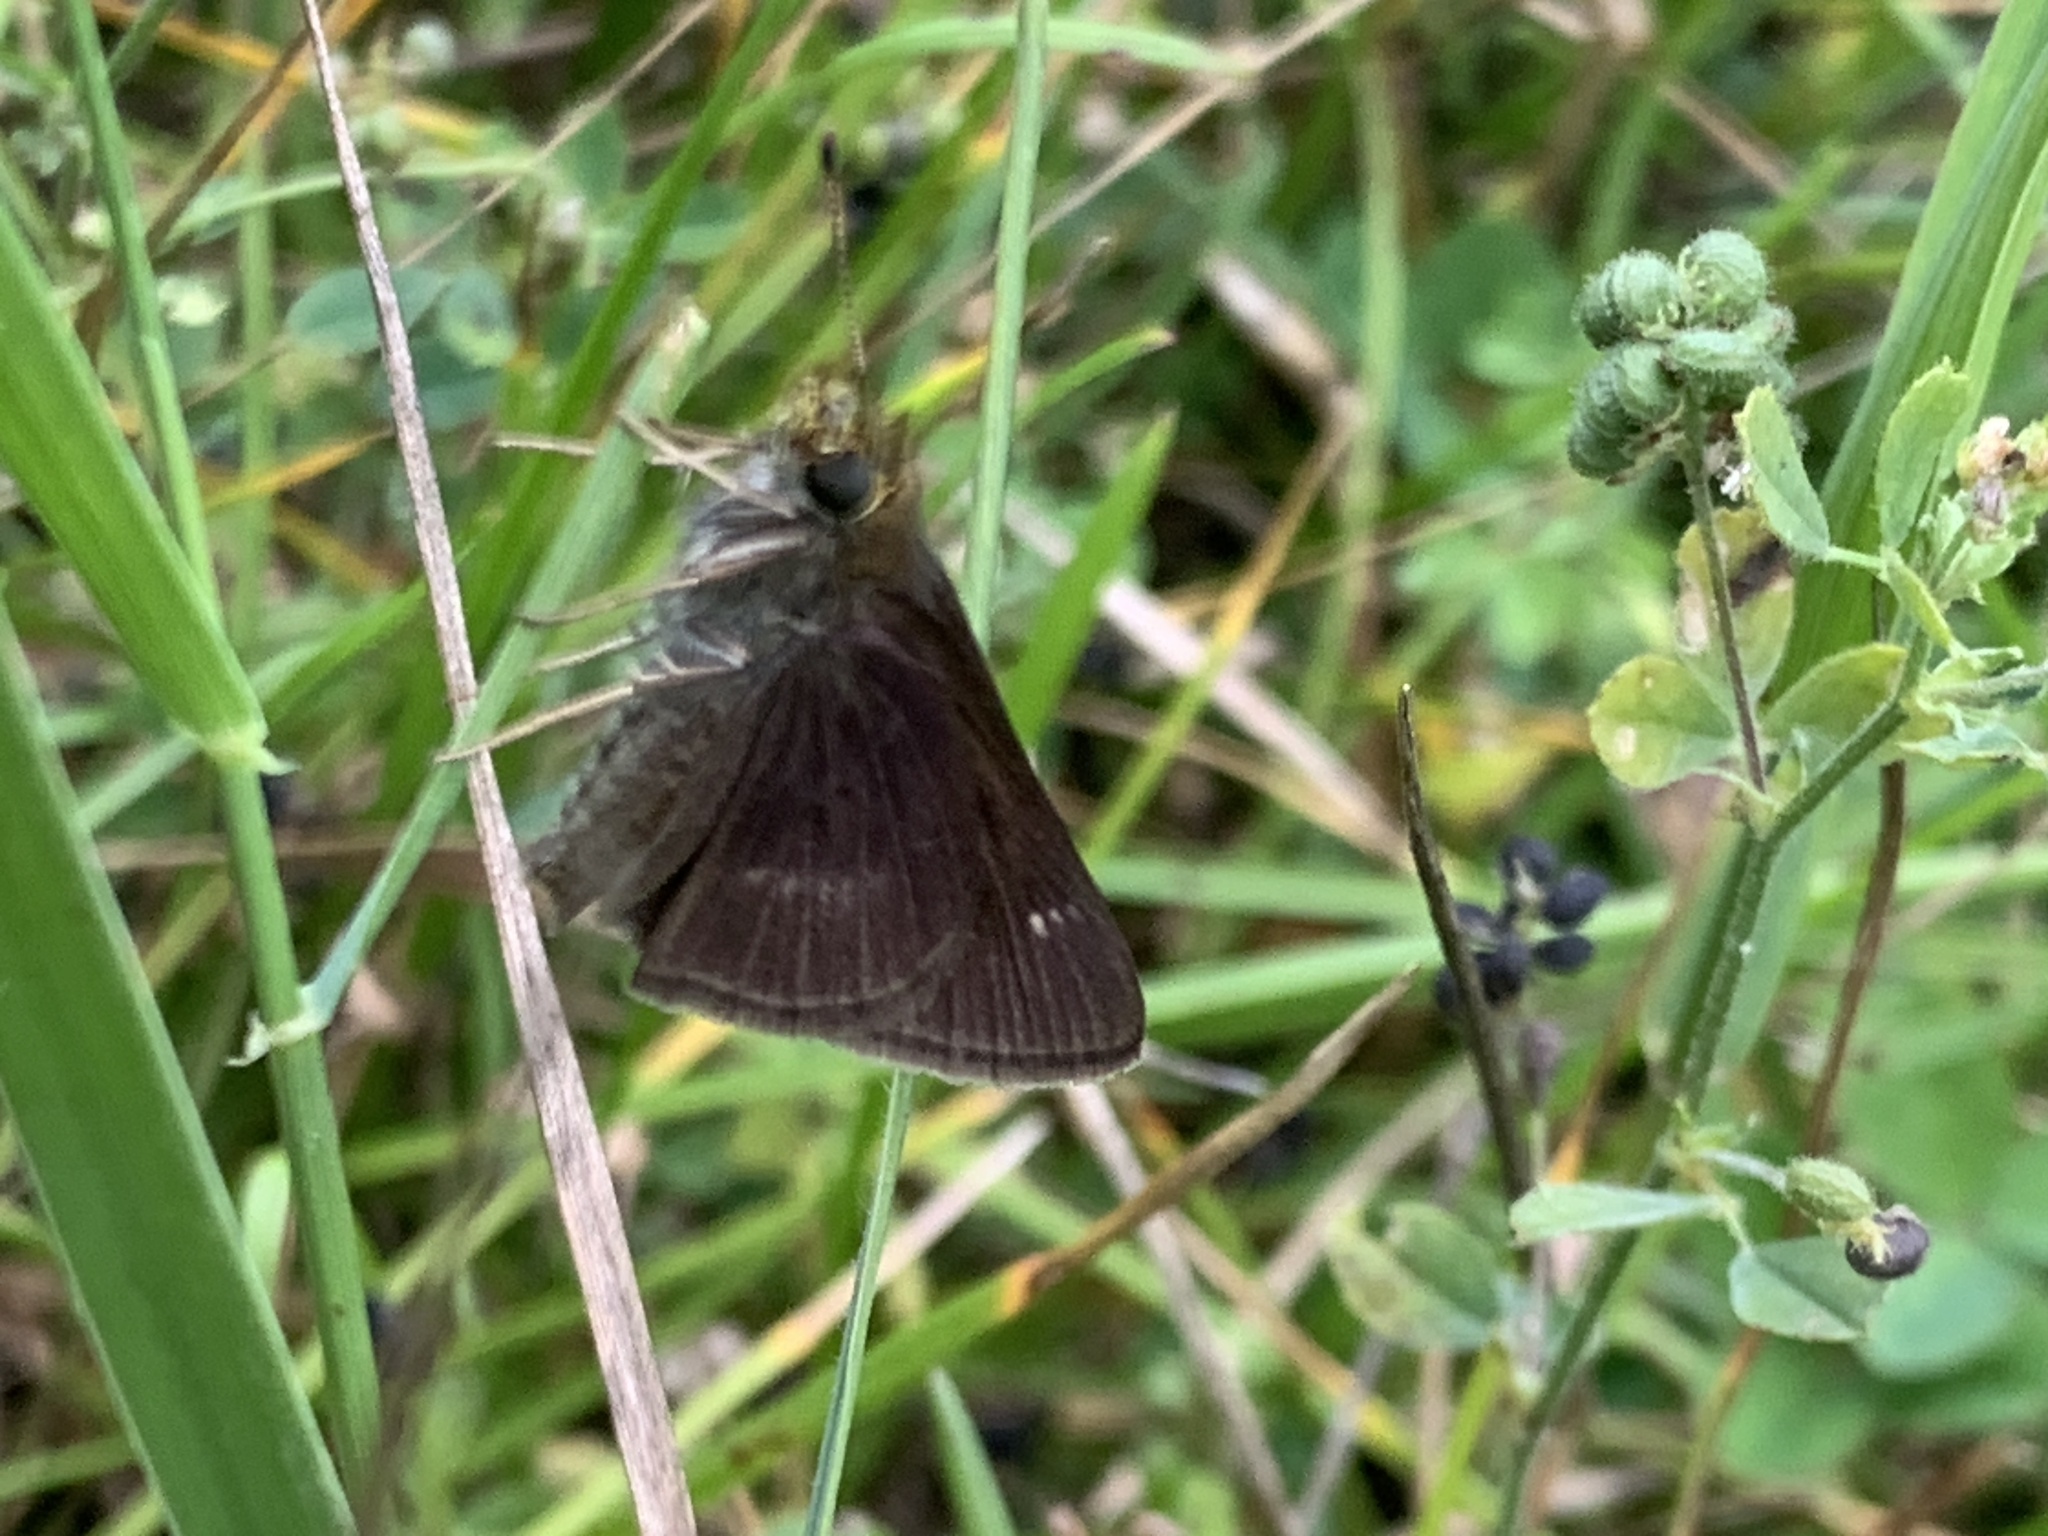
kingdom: Animalia
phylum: Arthropoda
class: Insecta
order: Lepidoptera
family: Hesperiidae
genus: Euphyes
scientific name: Euphyes vestris
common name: Dun skipper
